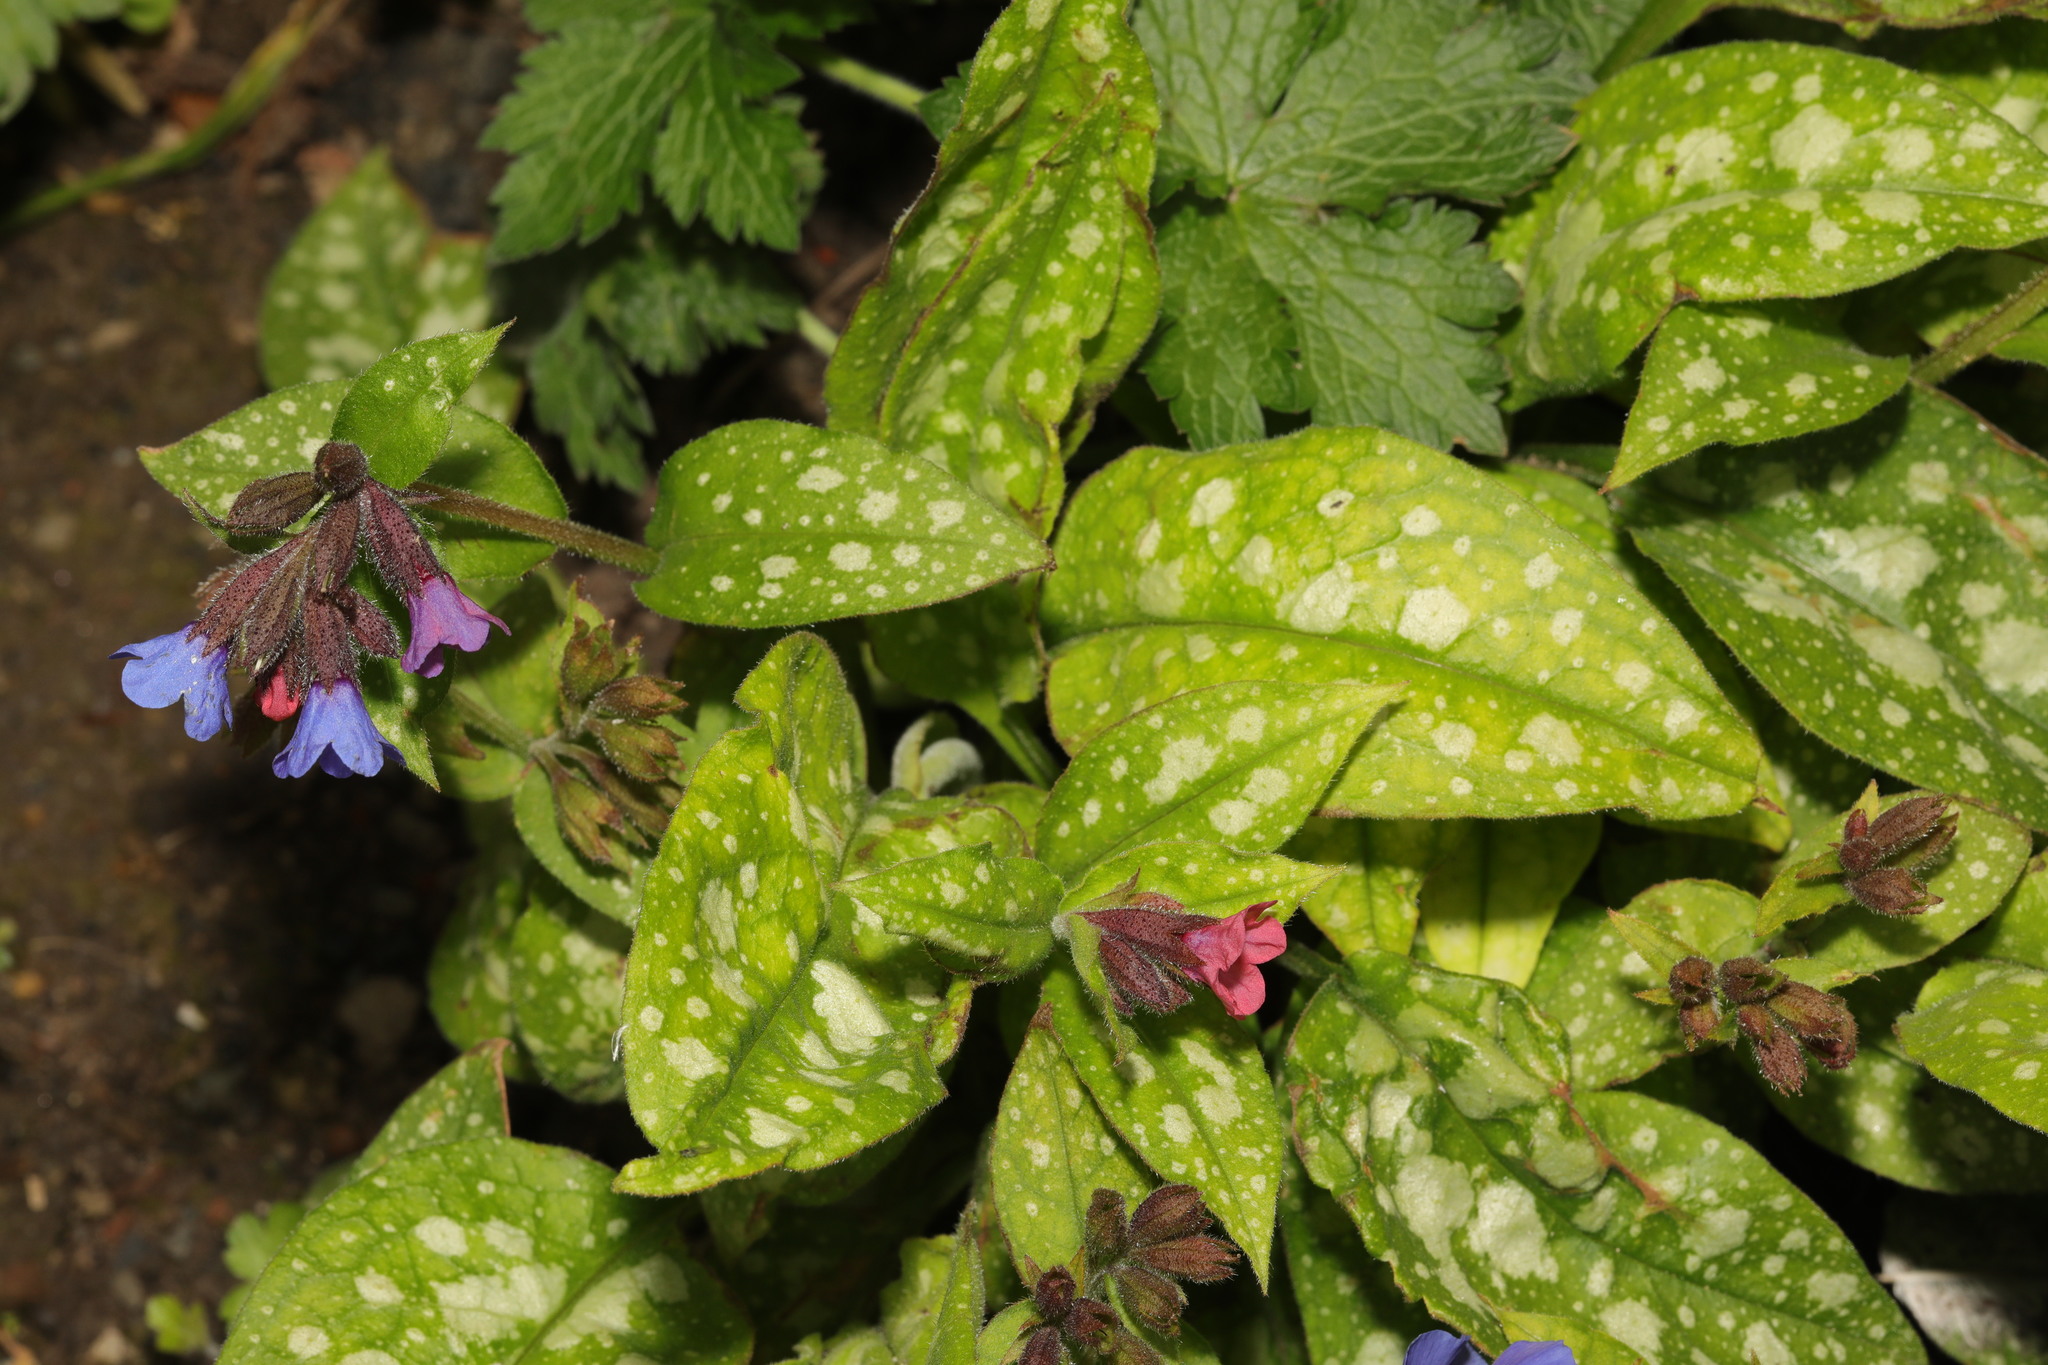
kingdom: Plantae
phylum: Tracheophyta
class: Magnoliopsida
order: Boraginales
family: Boraginaceae
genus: Pulmonaria
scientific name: Pulmonaria officinalis
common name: Lungwort
